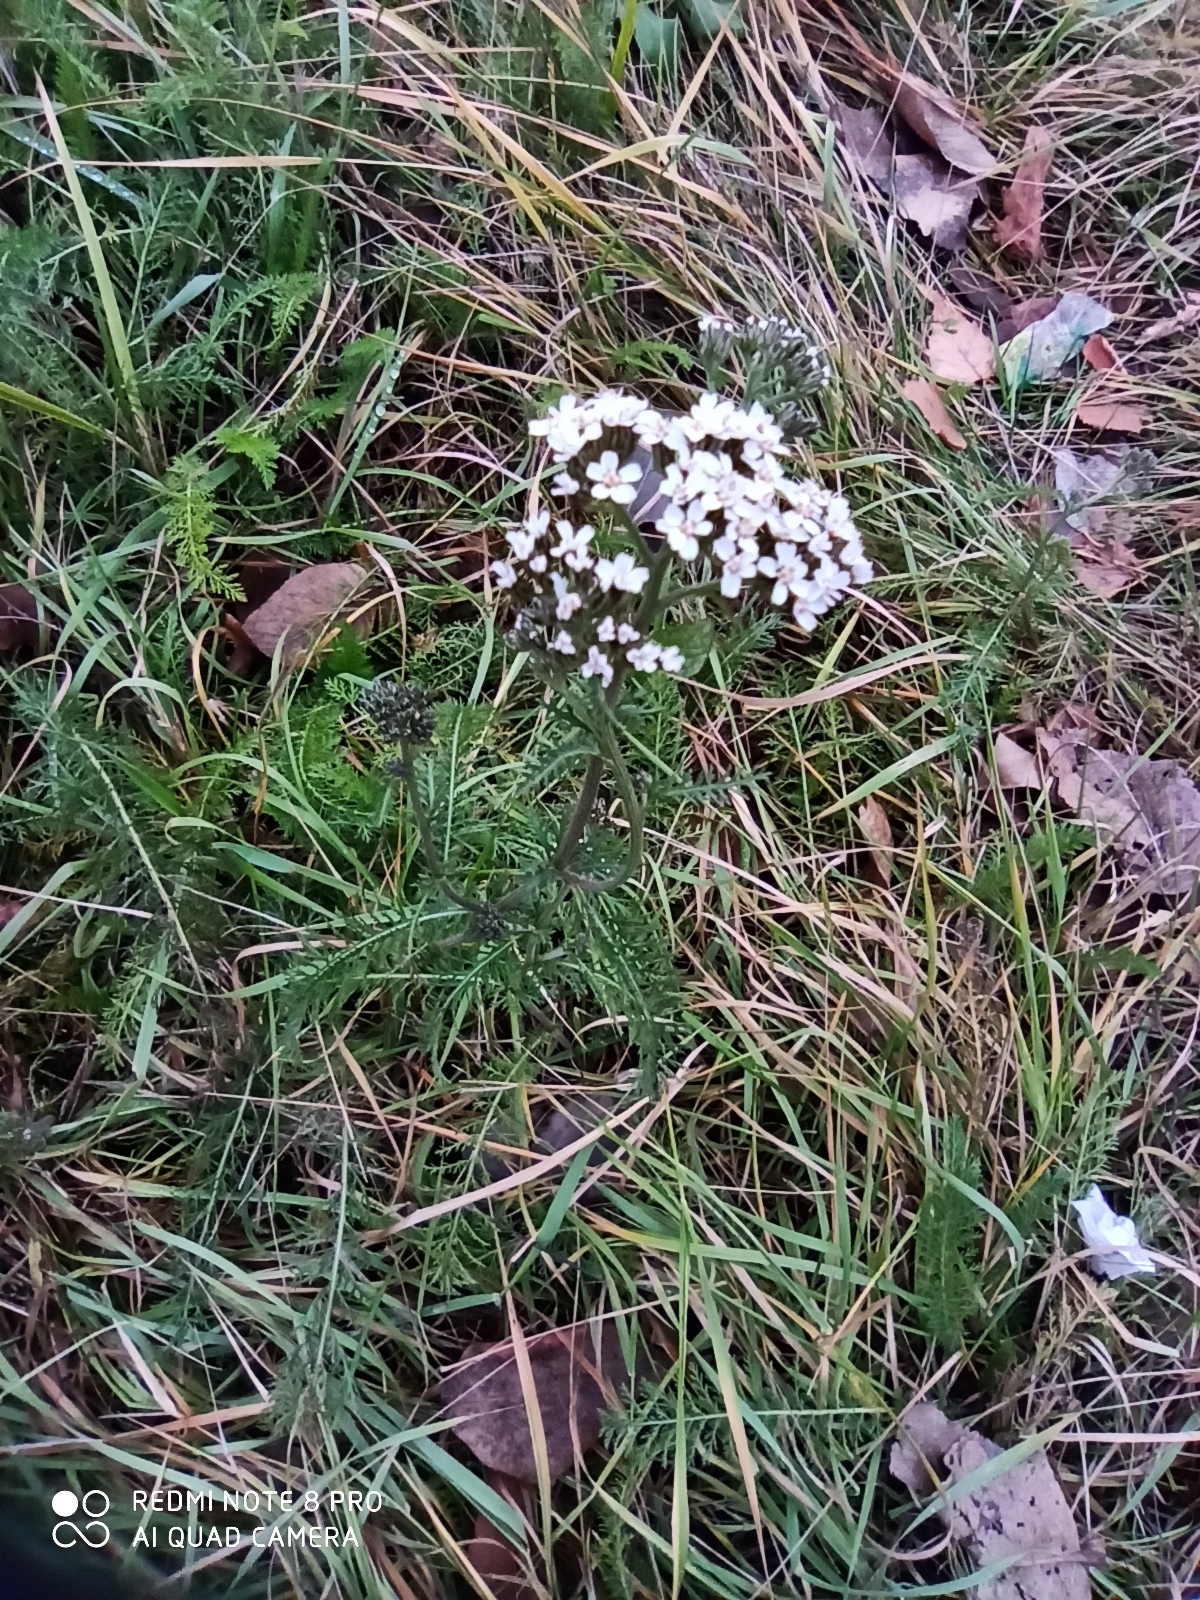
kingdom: Plantae
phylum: Tracheophyta
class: Magnoliopsida
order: Asterales
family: Asteraceae
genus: Achillea
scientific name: Achillea millefolium
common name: Yarrow
